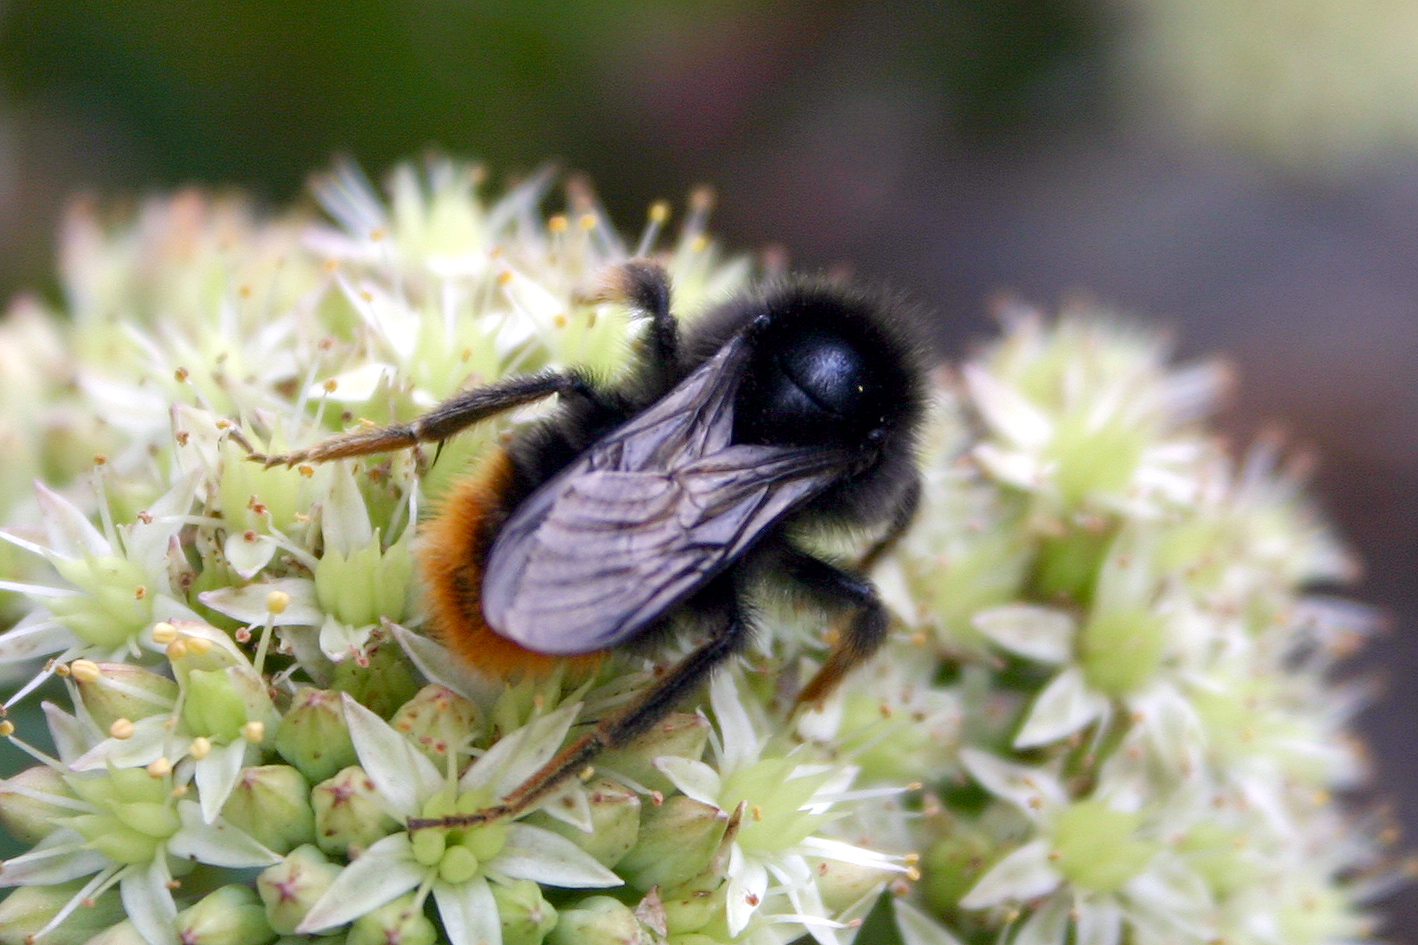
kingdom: Animalia
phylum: Arthropoda
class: Insecta
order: Hymenoptera
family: Apidae
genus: Bombus
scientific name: Bombus rupestris
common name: Hill cuckoo-bee
